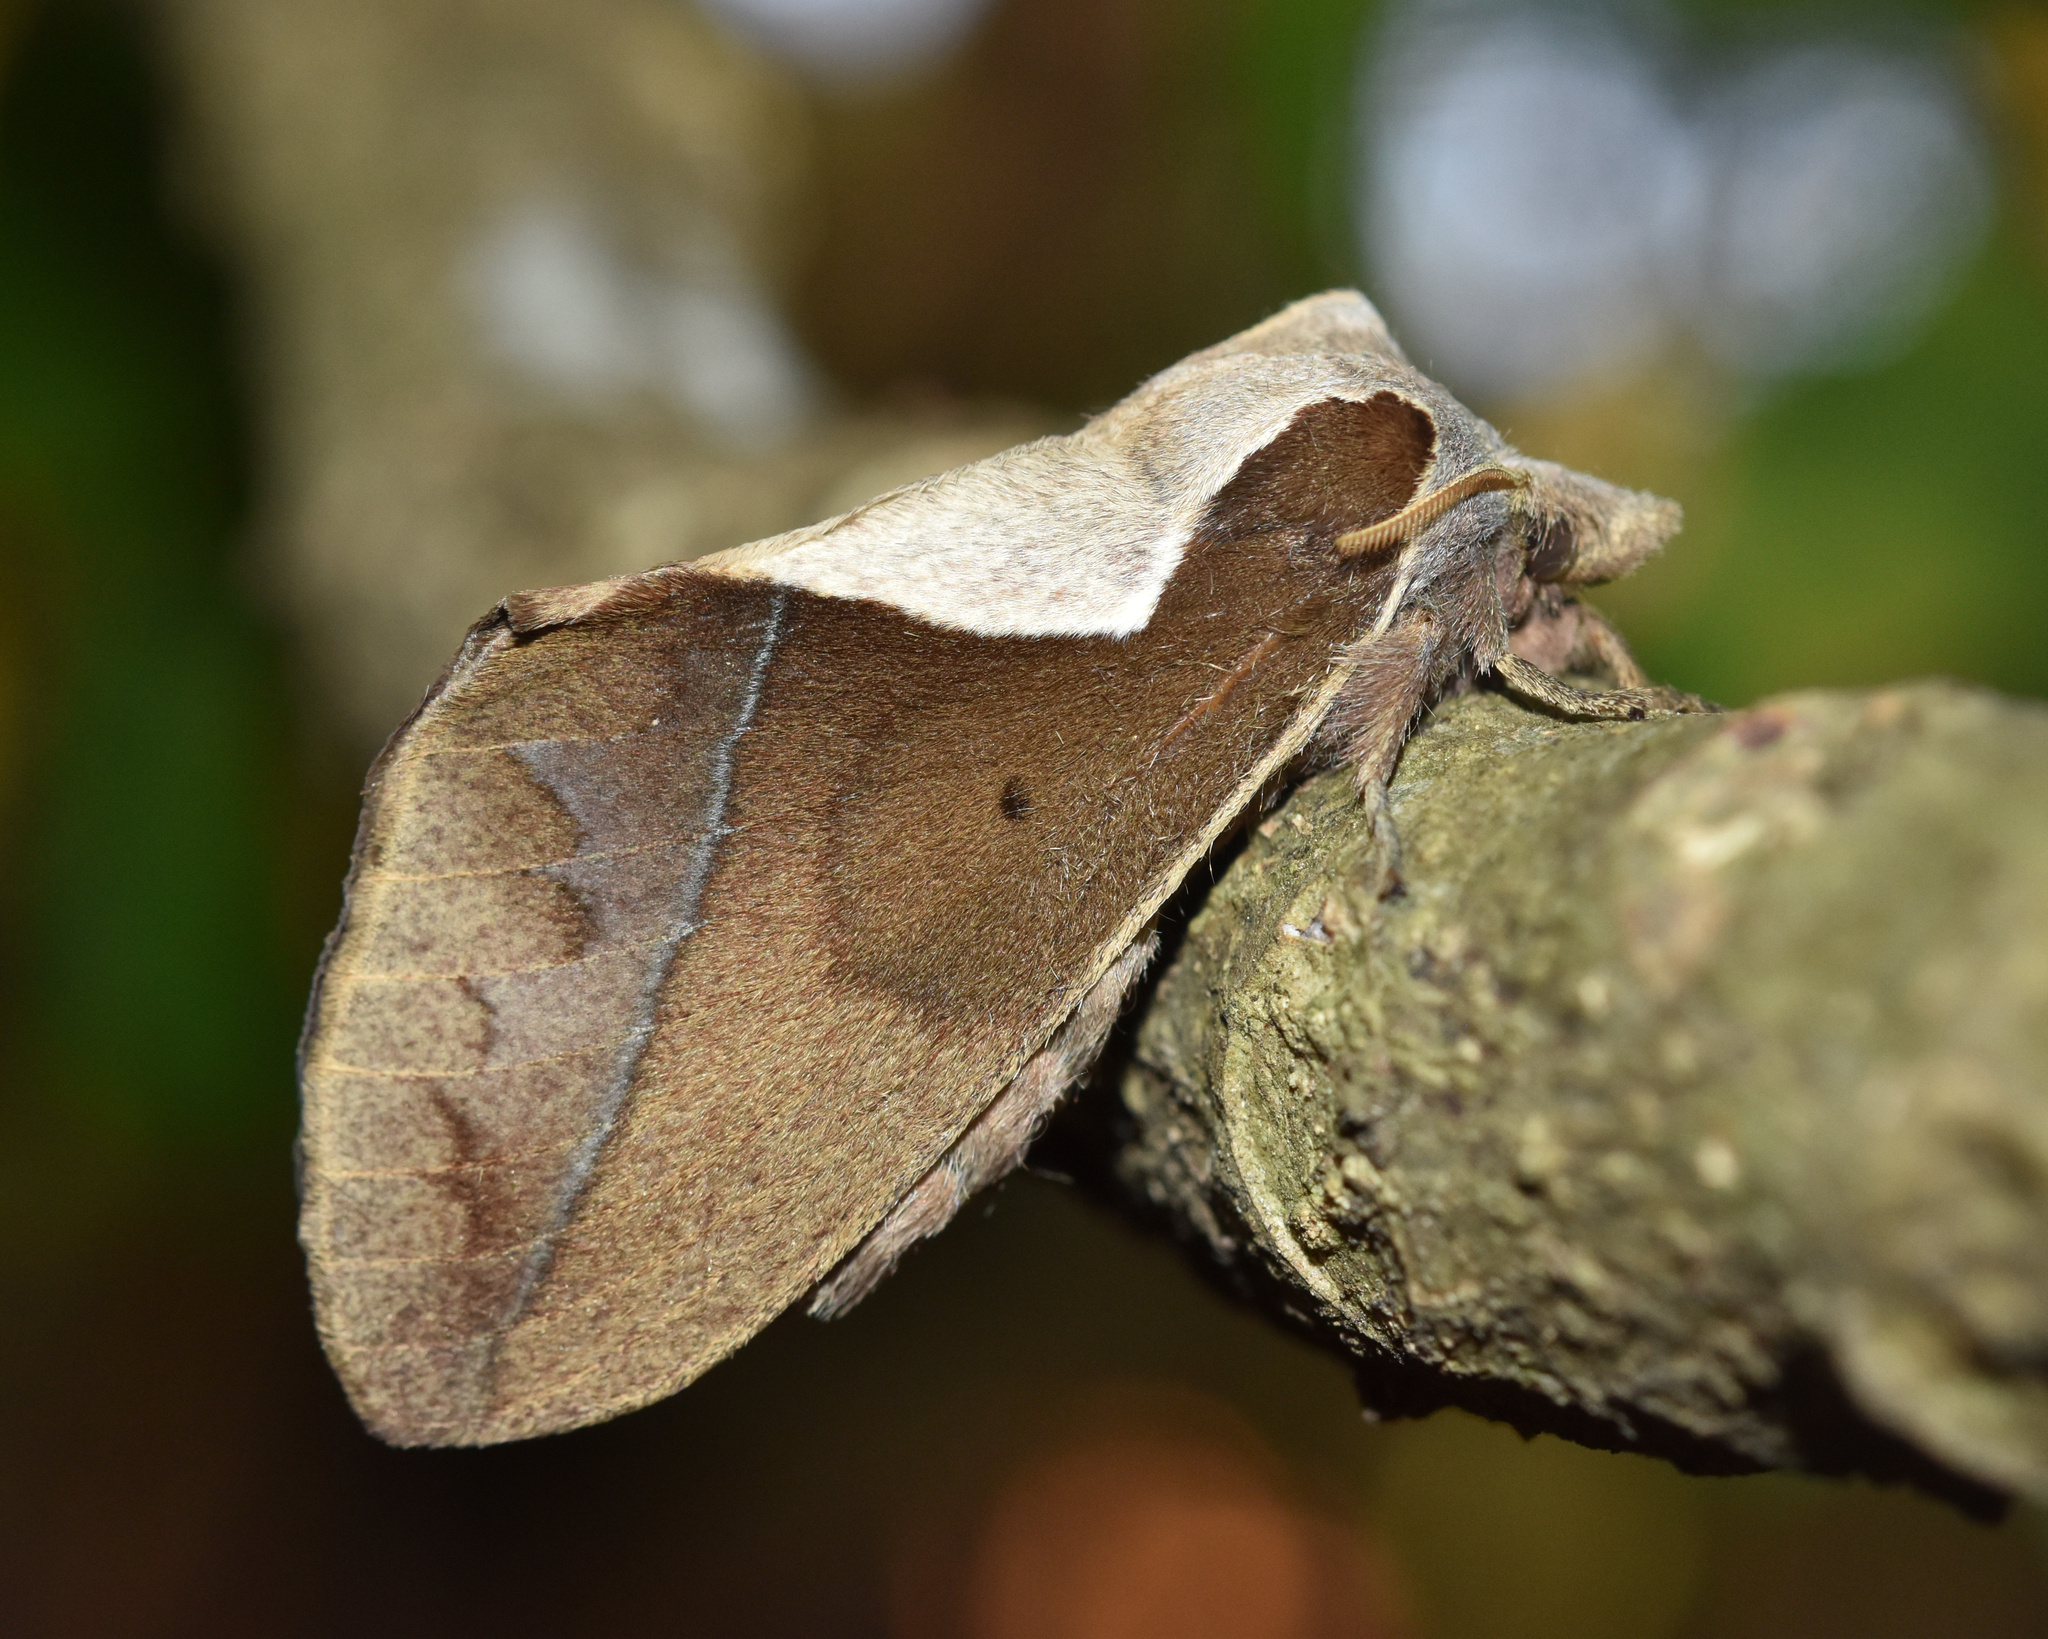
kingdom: Animalia
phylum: Arthropoda
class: Insecta
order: Lepidoptera
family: Lasiocampidae
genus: Stoermeriana
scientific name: Stoermeriana scapulosa
